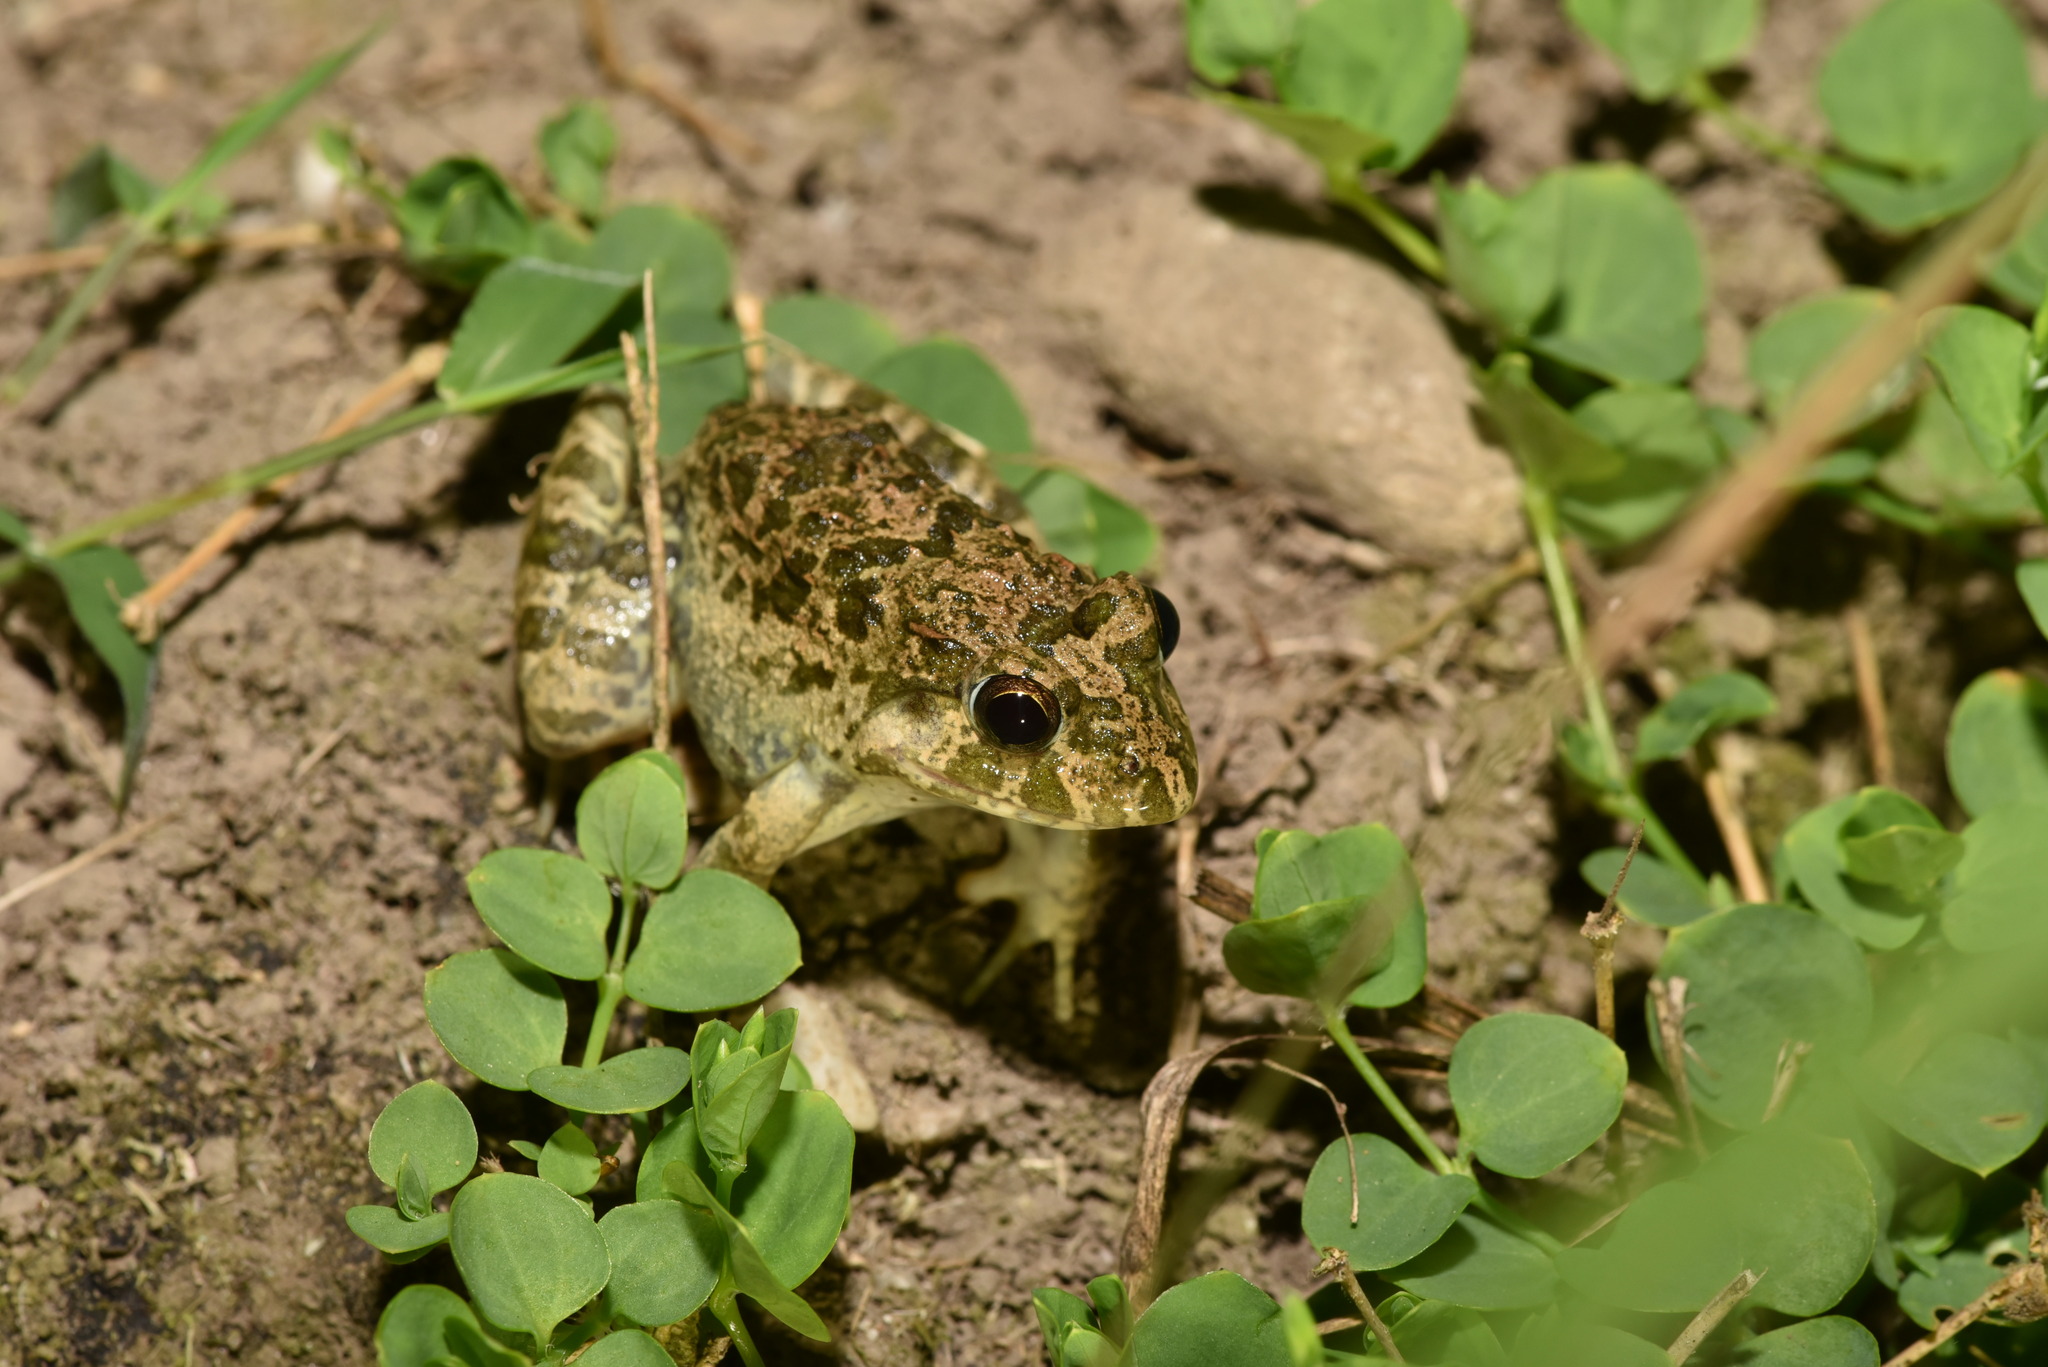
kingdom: Animalia
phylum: Chordata
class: Amphibia
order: Anura
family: Dicroglossidae
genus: Fejervarya
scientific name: Fejervarya limnocharis
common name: Asian grass frog/common pond frog/field frog/grass frog/indian rice frog
